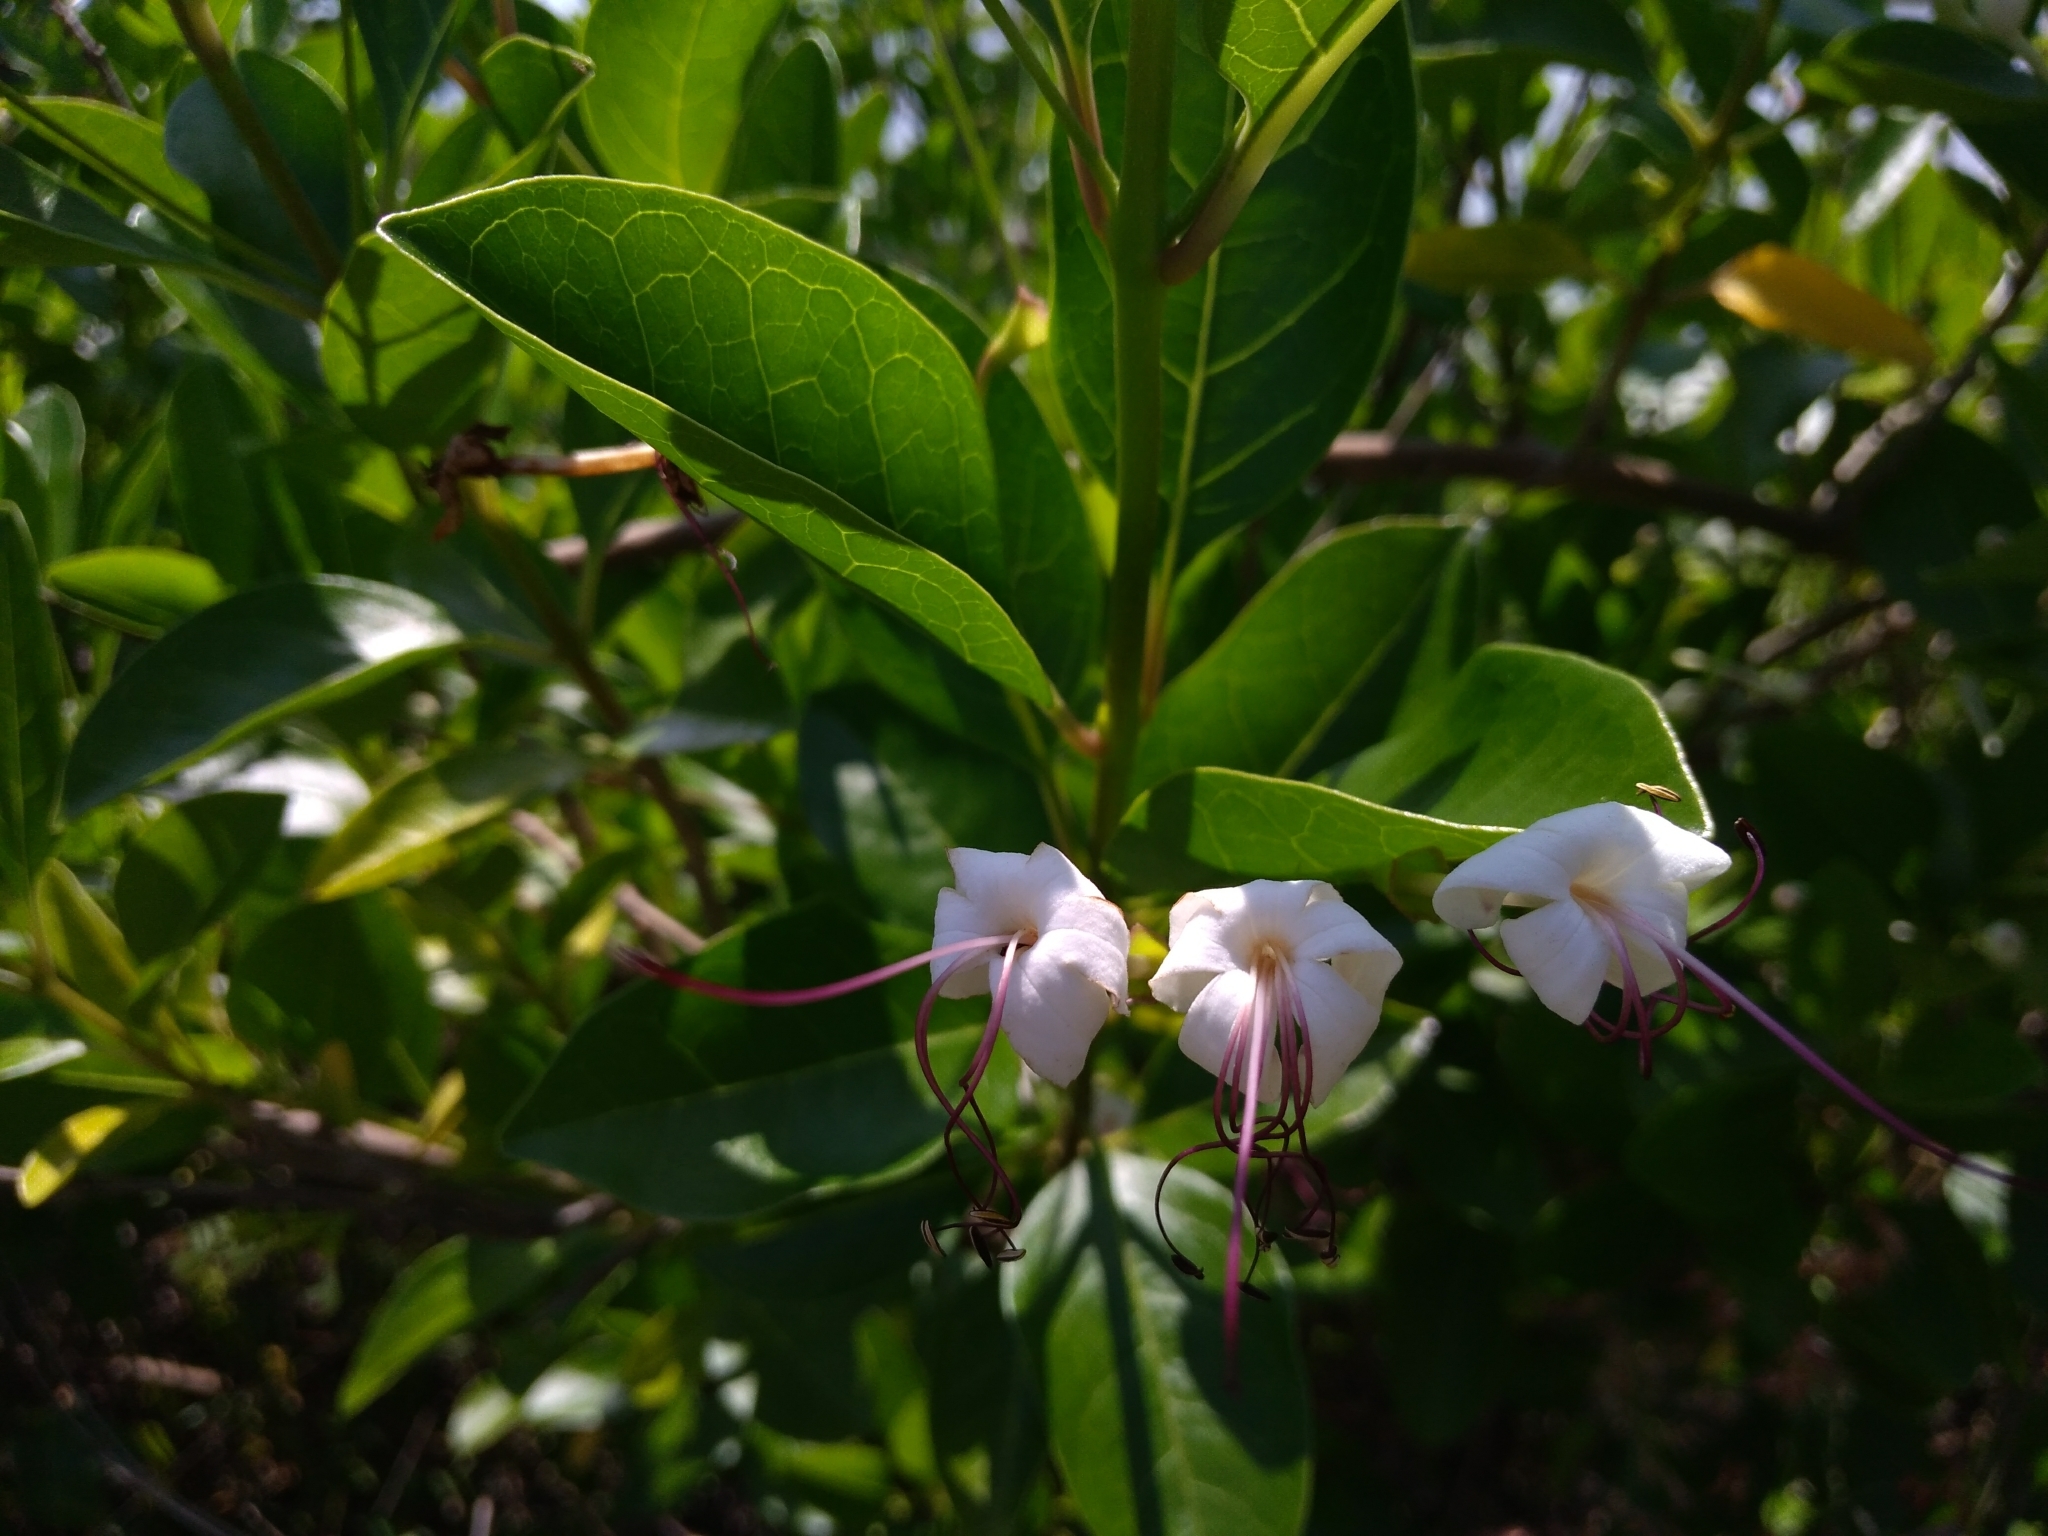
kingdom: Plantae
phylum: Tracheophyta
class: Magnoliopsida
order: Lamiales
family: Lamiaceae
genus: Volkameria
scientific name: Volkameria inermis
